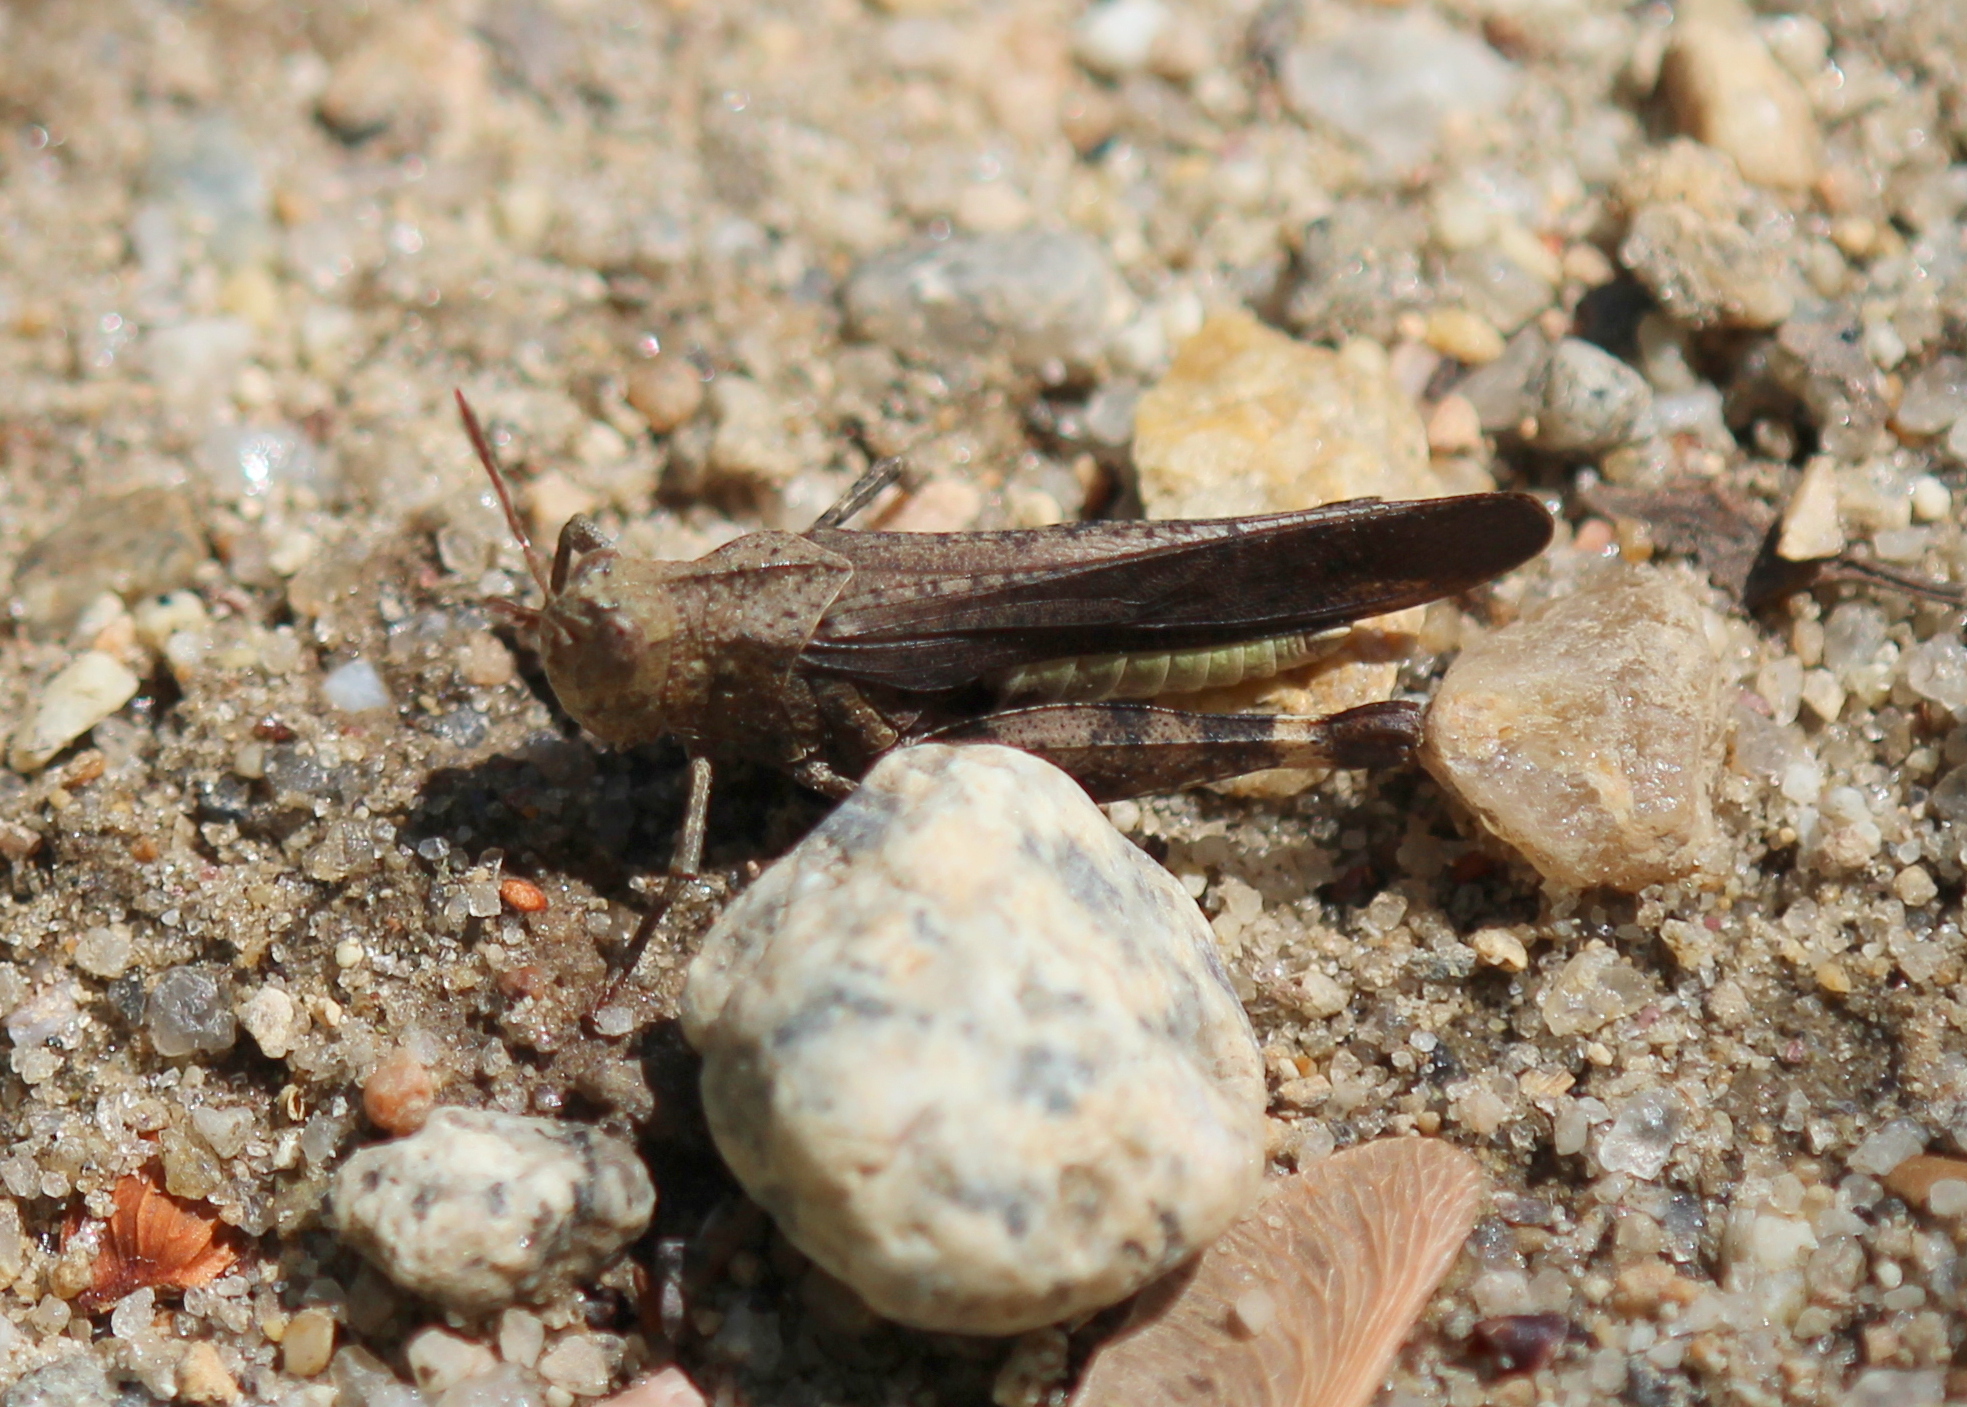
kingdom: Animalia
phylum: Arthropoda
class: Insecta
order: Orthoptera
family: Acrididae
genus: Arphia
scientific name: Arphia sulphurea
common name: Spring yellow-winged locust
